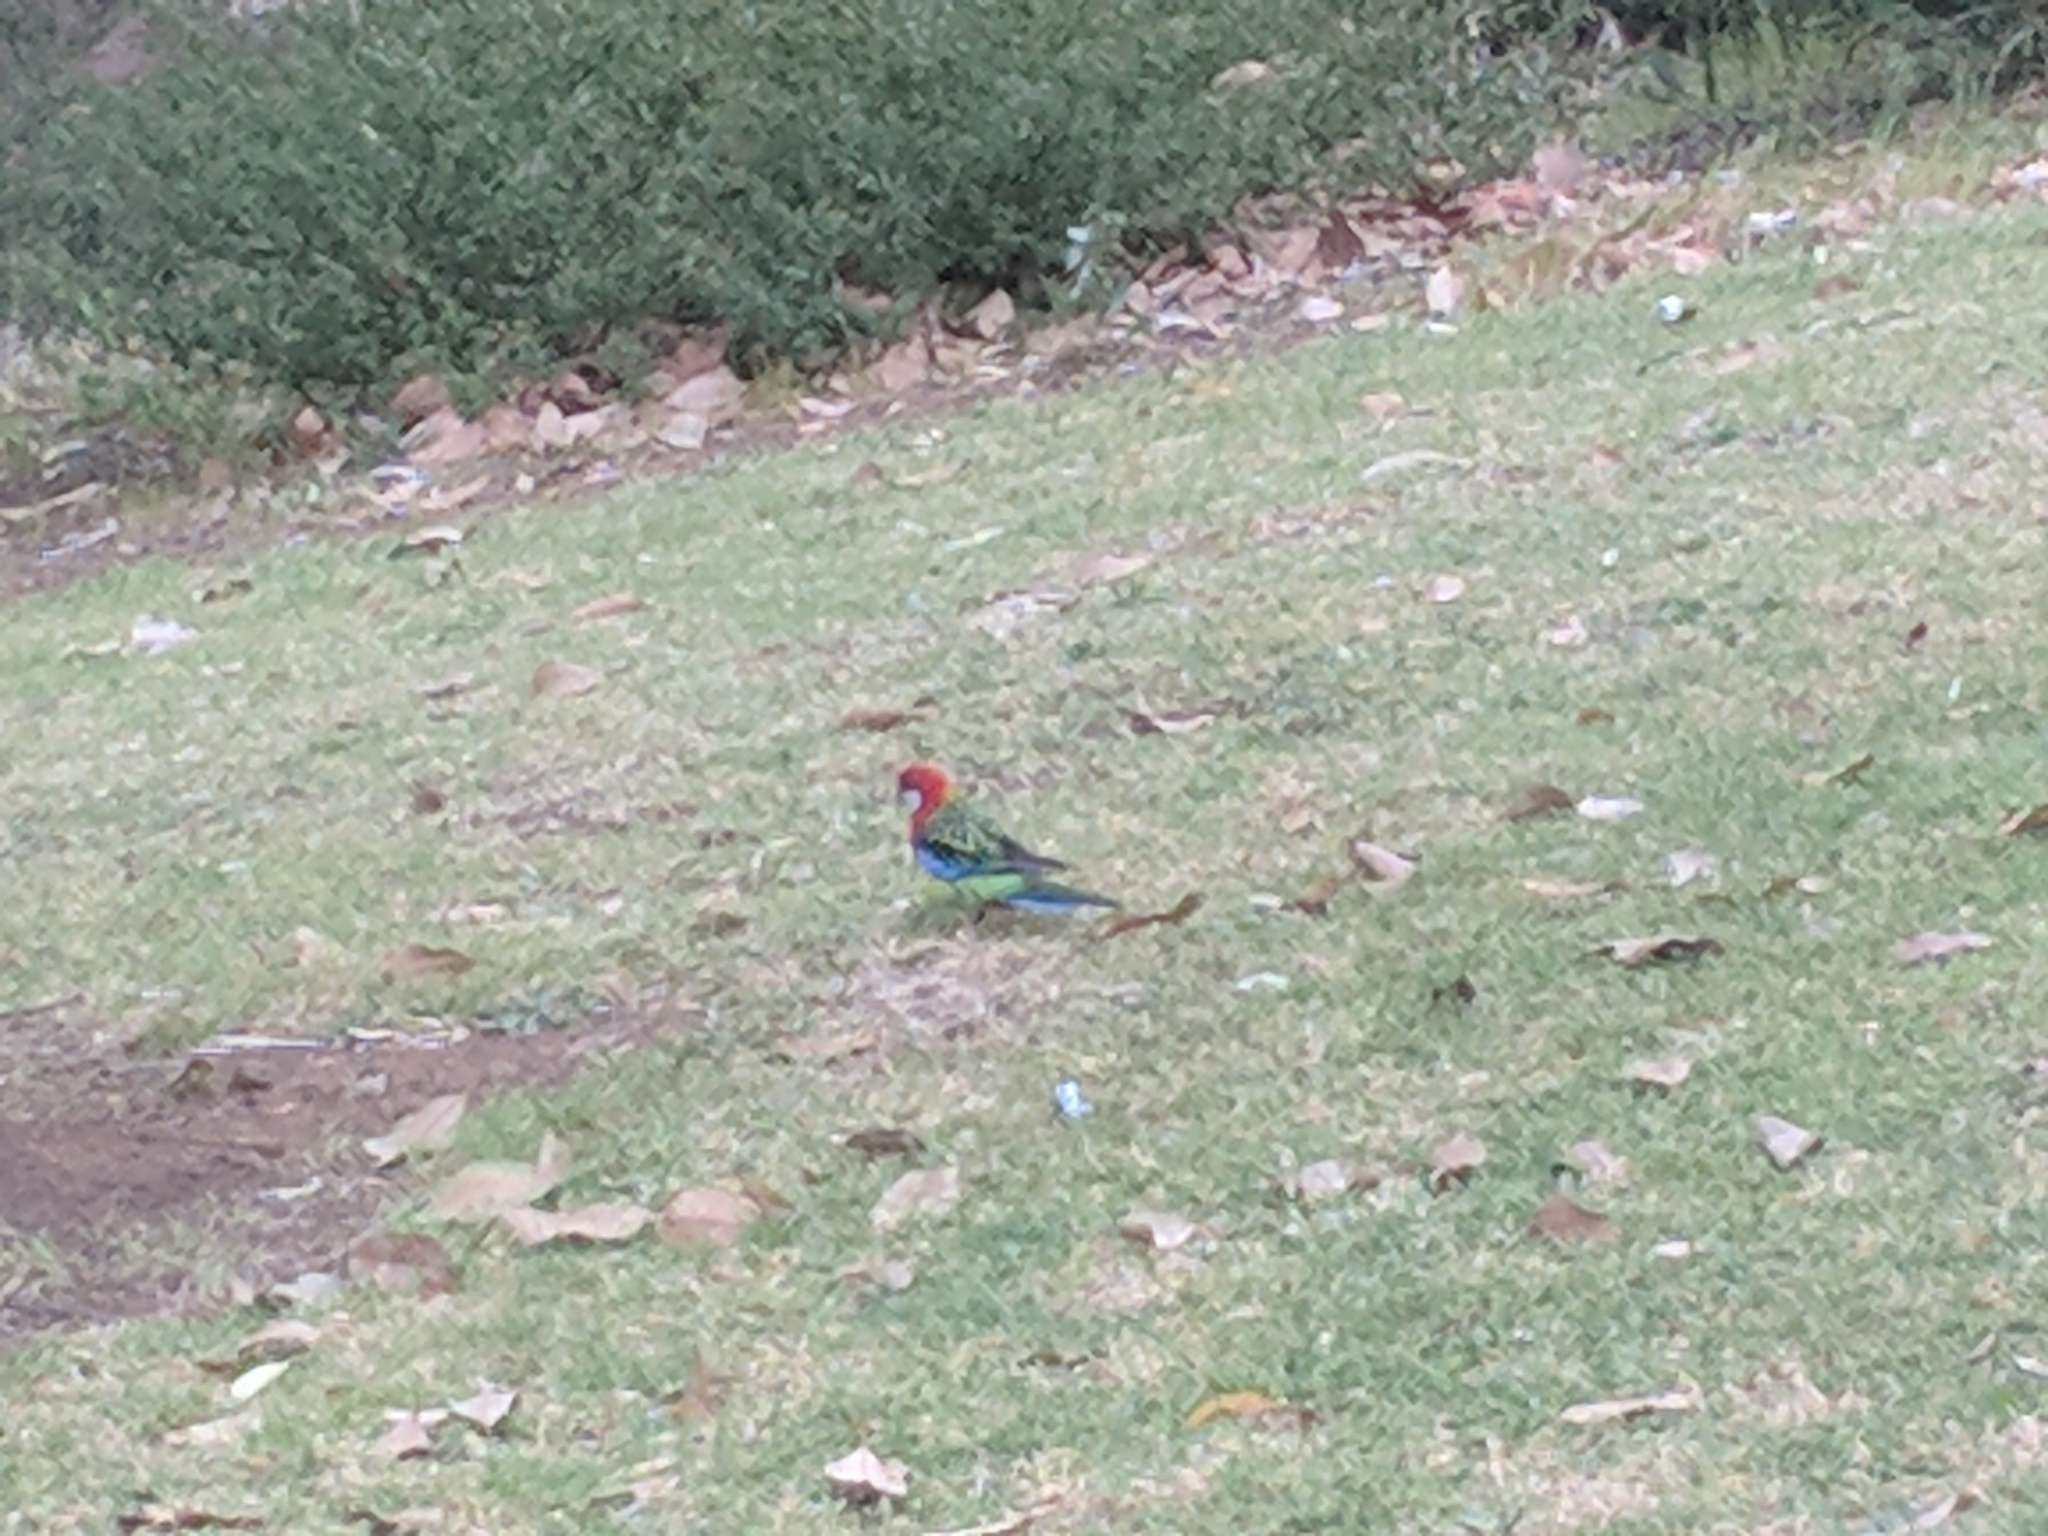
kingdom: Animalia
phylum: Chordata
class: Aves
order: Psittaciformes
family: Psittacidae
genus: Platycercus
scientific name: Platycercus eximius
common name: Eastern rosella
